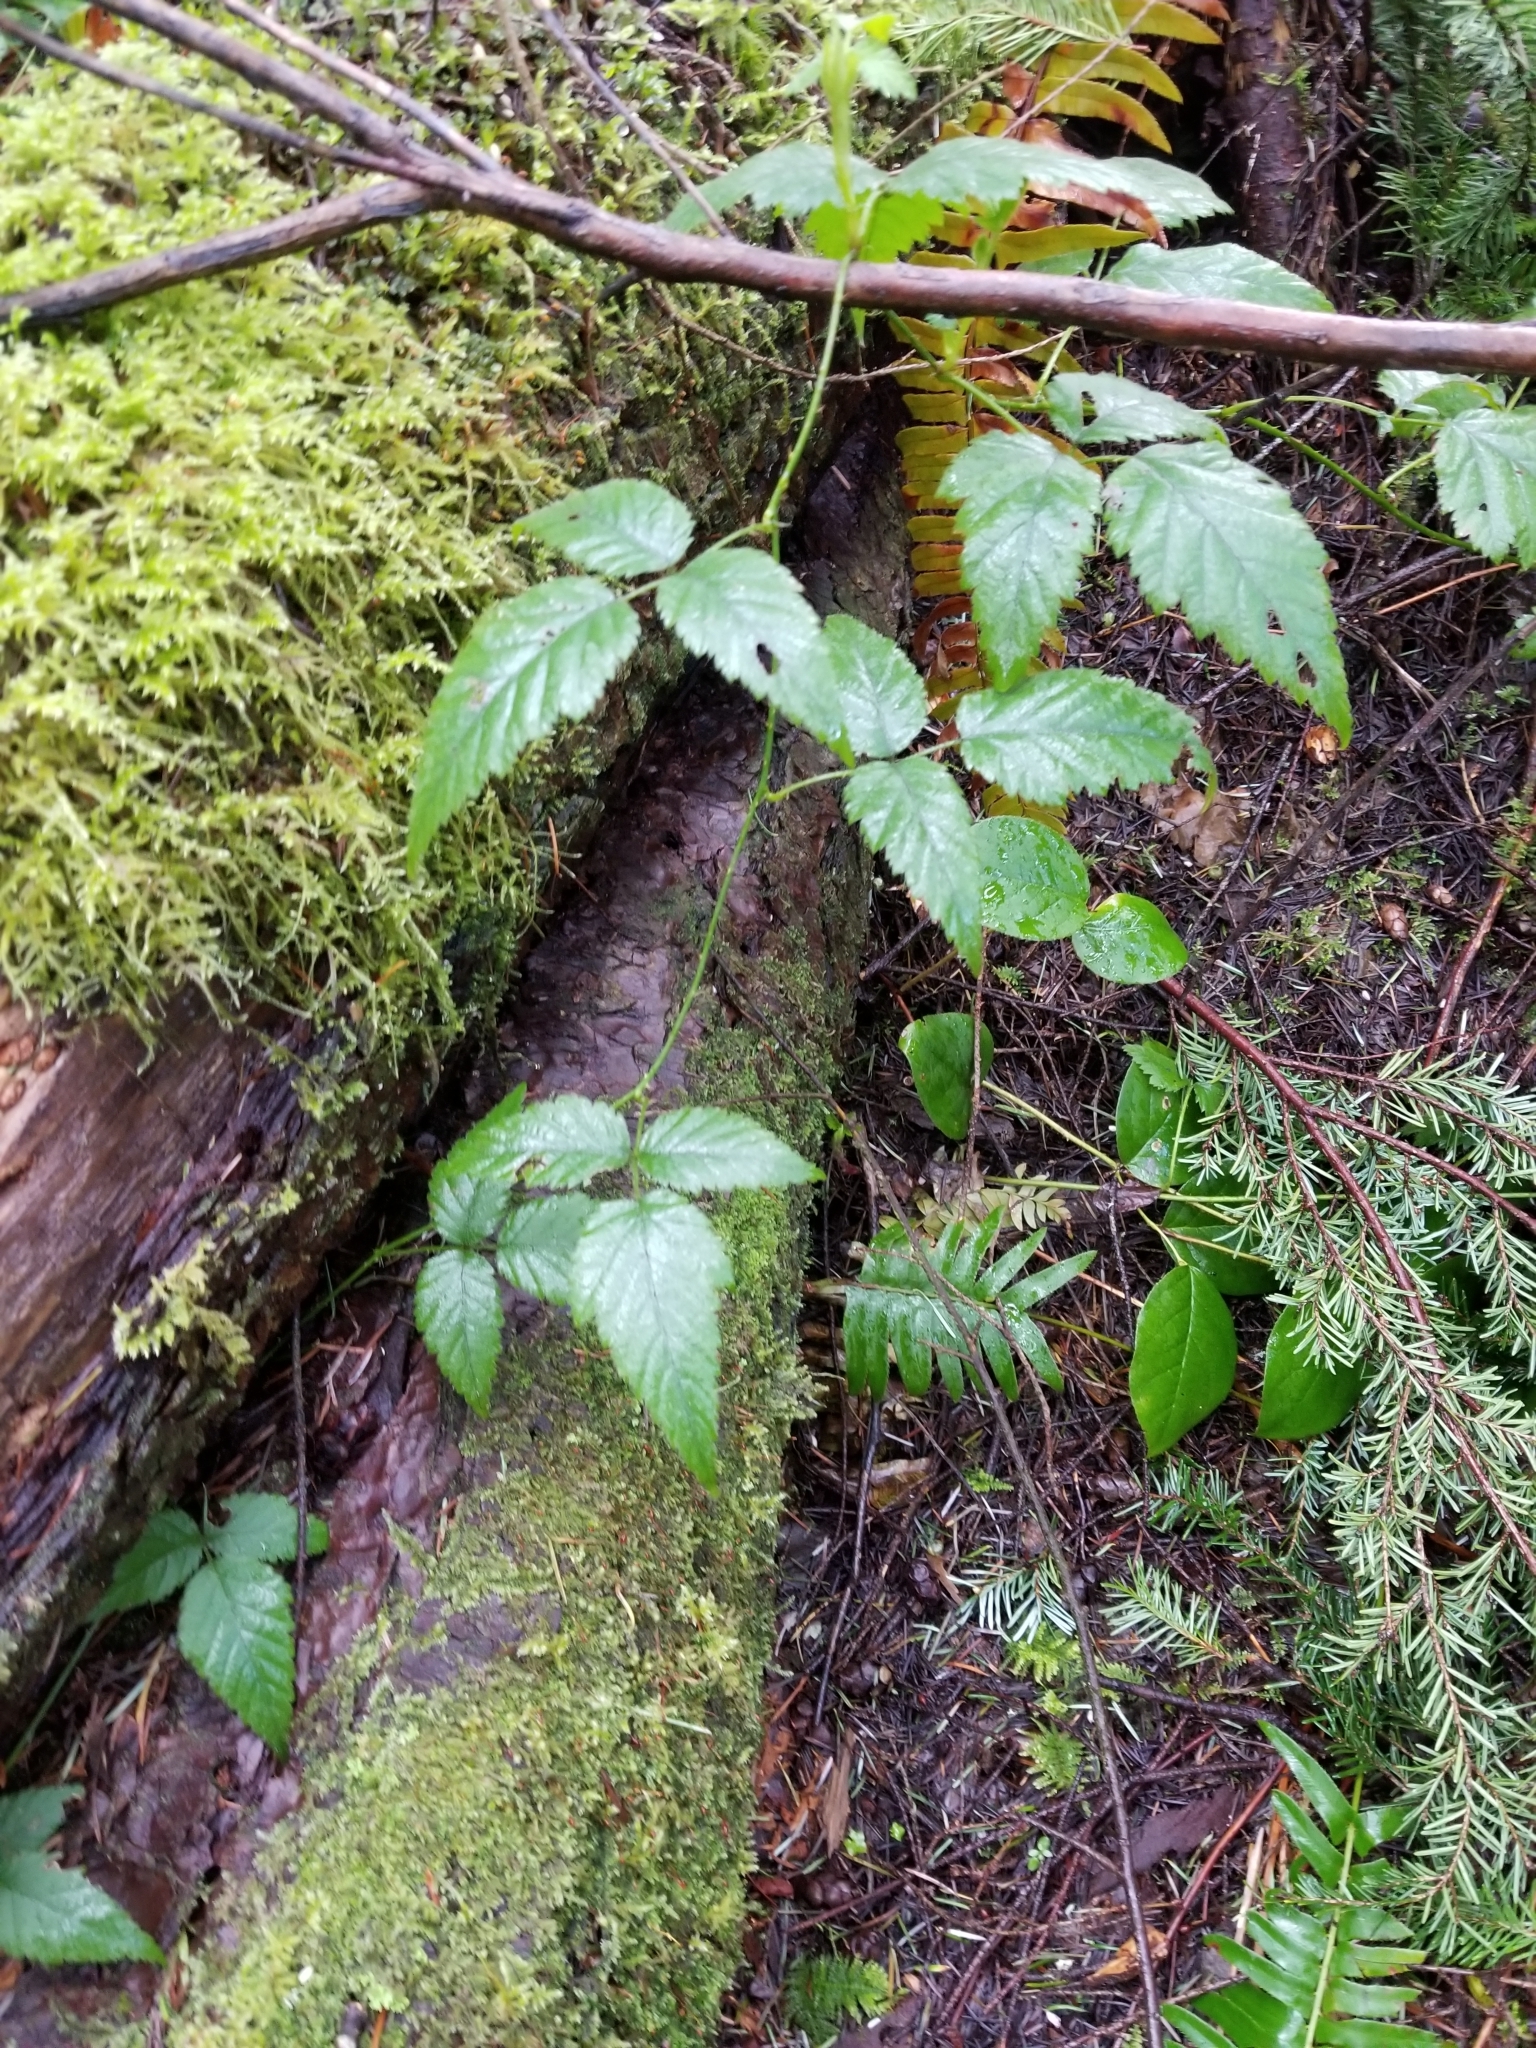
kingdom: Plantae
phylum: Tracheophyta
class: Magnoliopsida
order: Rosales
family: Rosaceae
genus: Rubus
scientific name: Rubus ursinus
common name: Pacific blackberry
